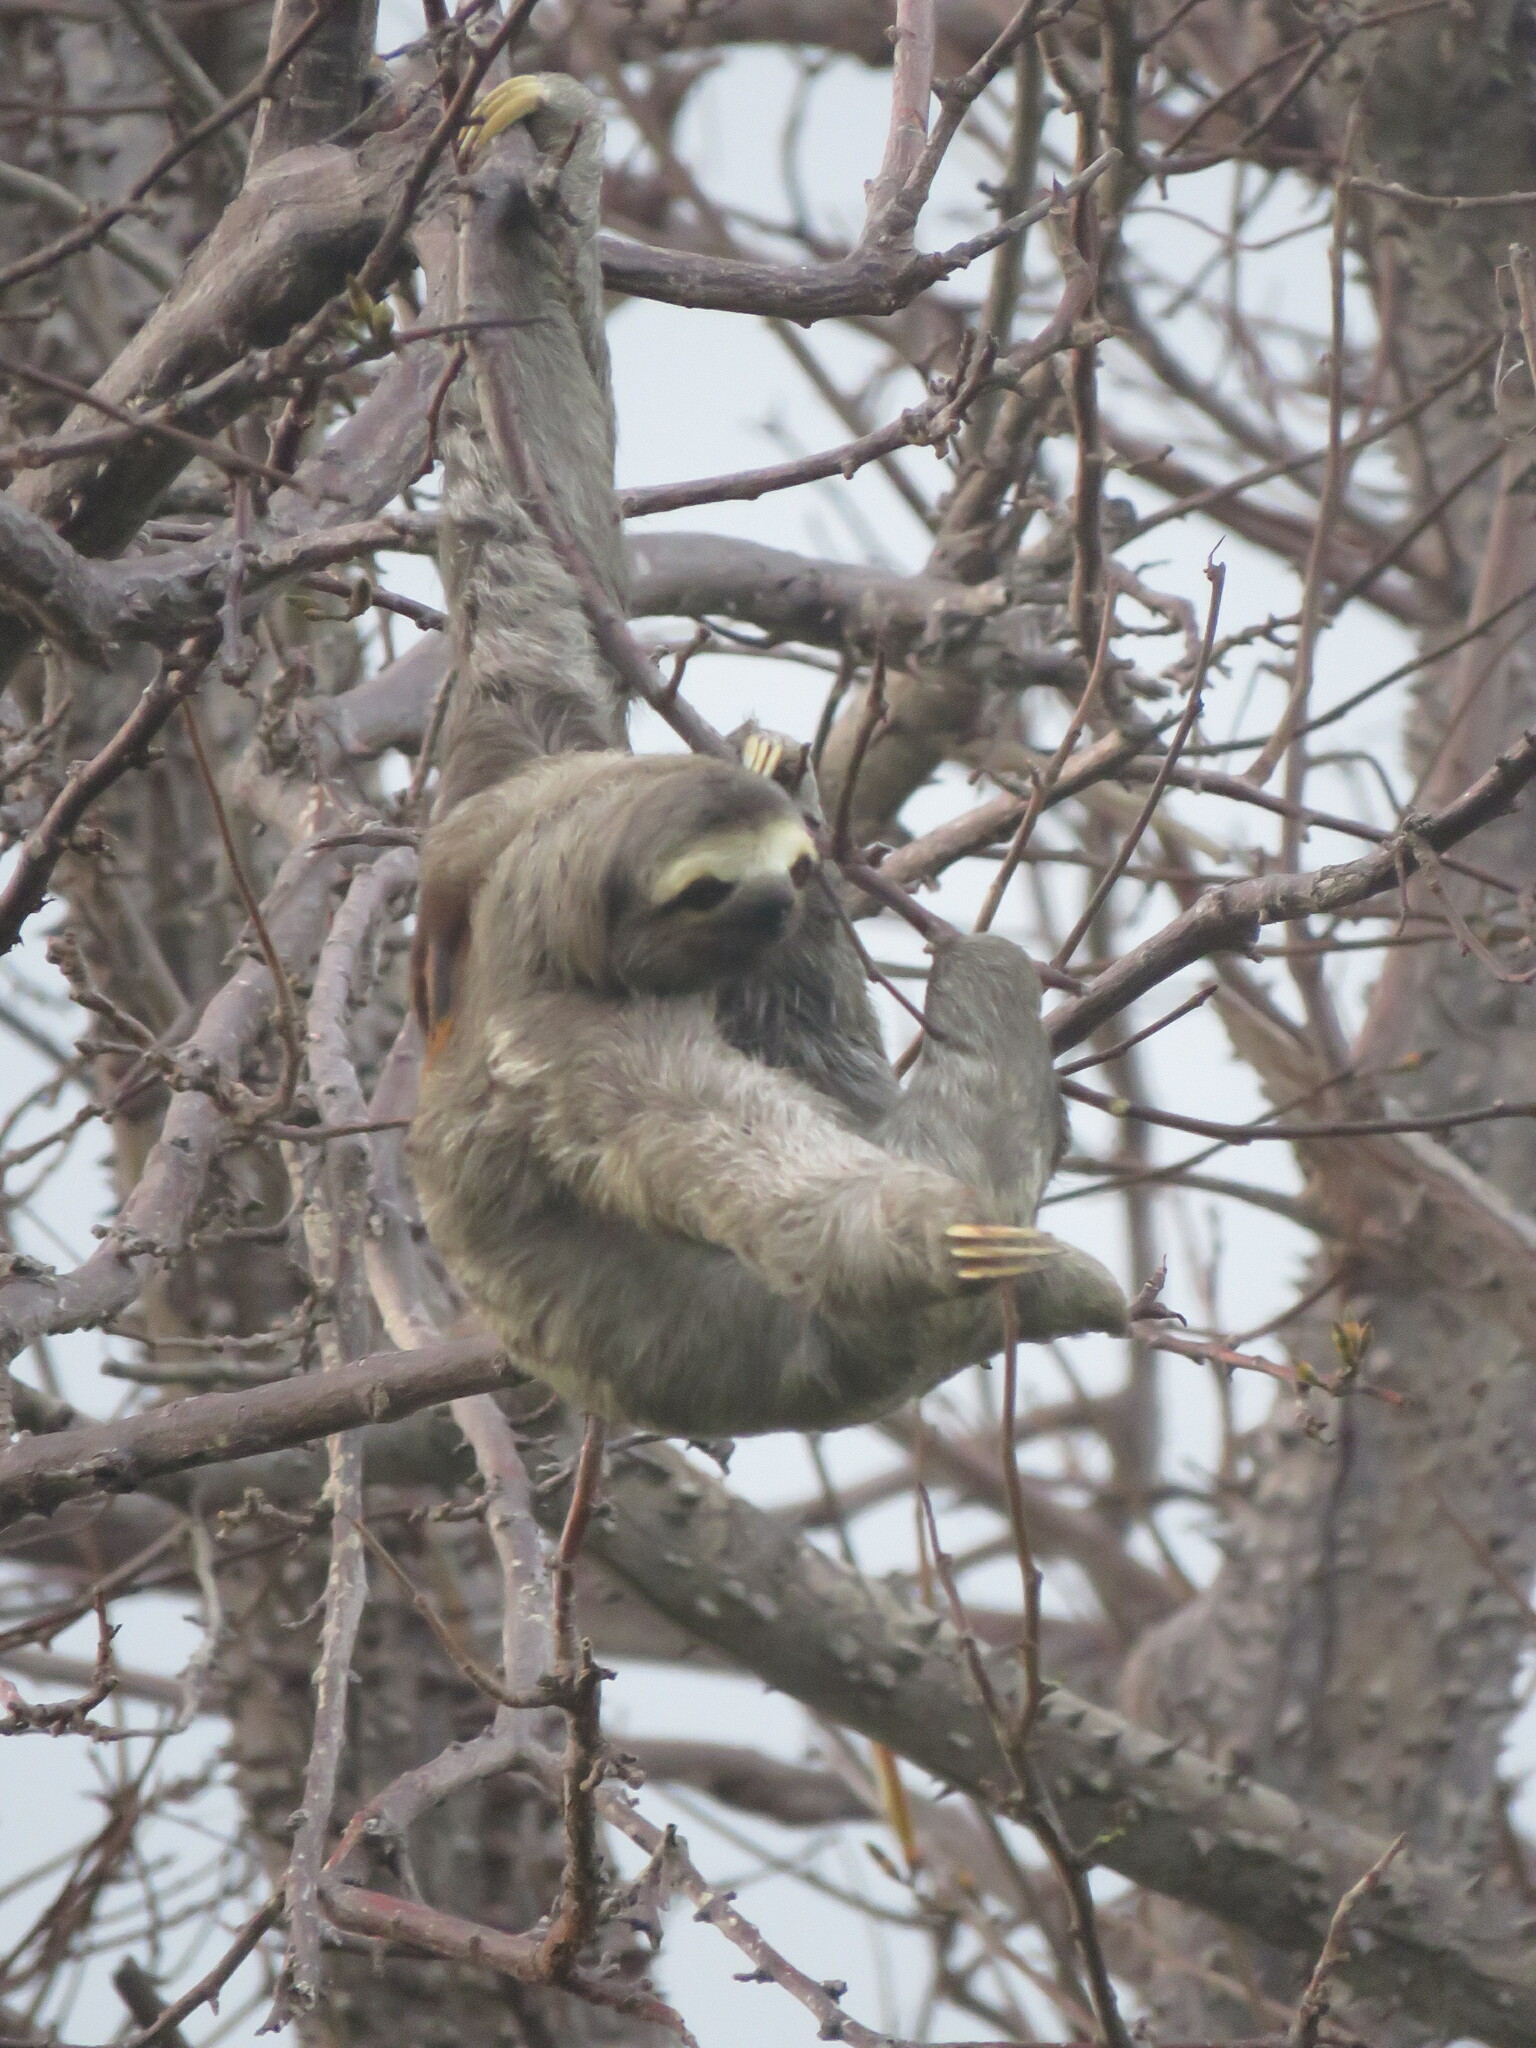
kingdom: Animalia
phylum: Chordata
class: Mammalia
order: Pilosa
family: Bradypodidae
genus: Bradypus
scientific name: Bradypus variegatus
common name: Brown-throated three-toed sloth
